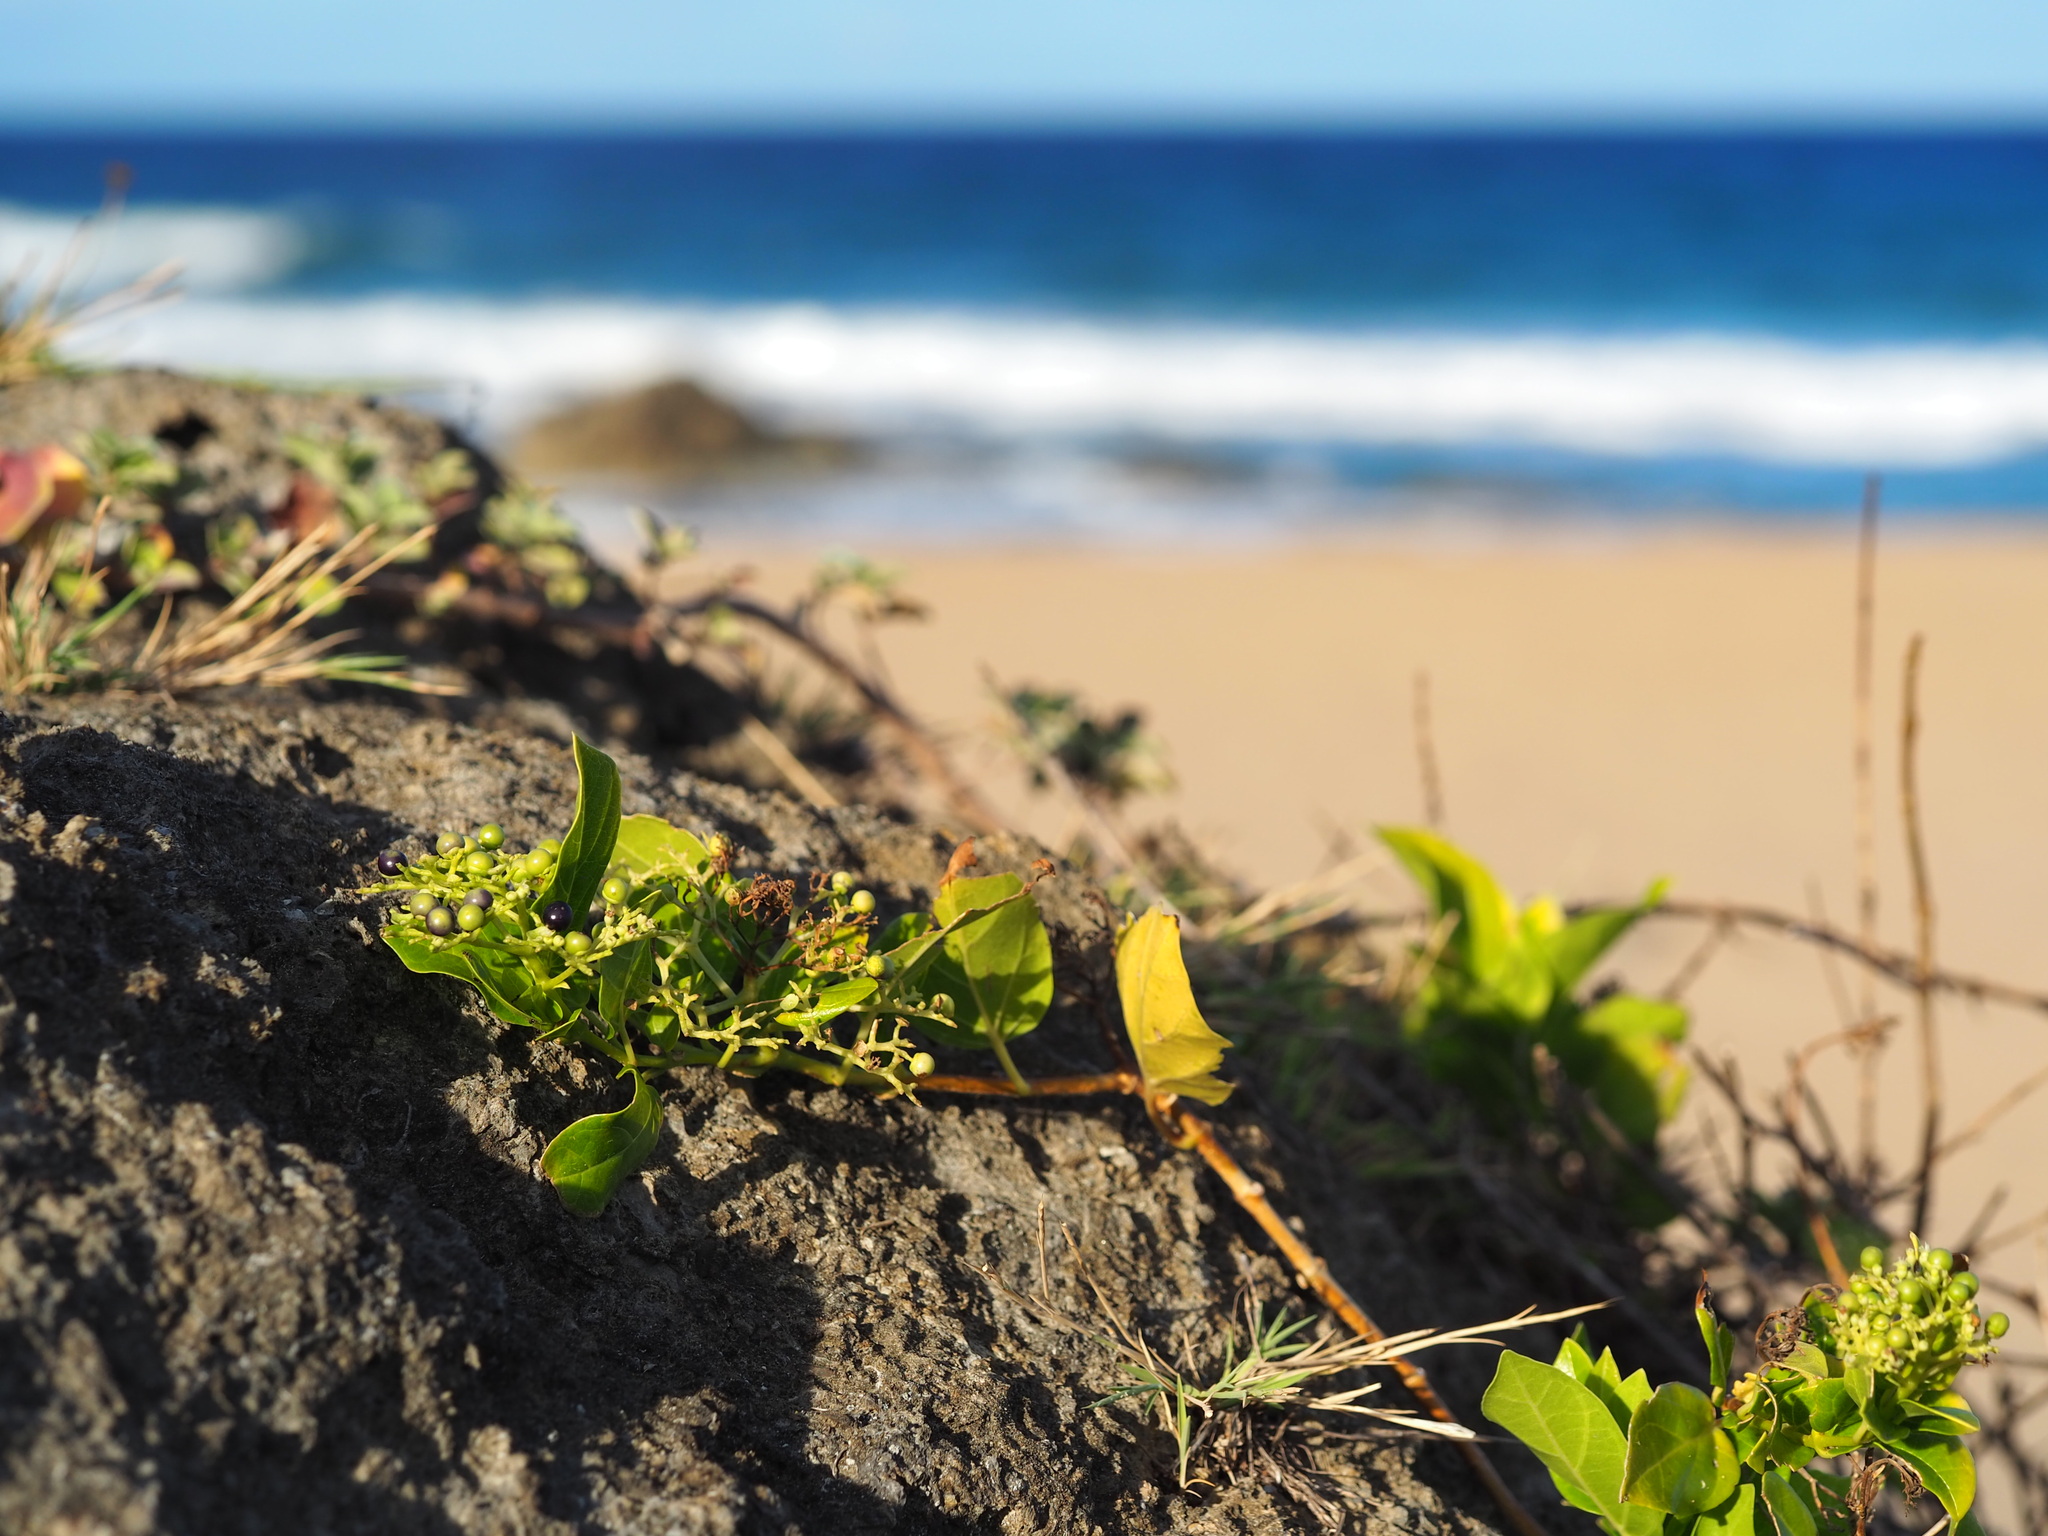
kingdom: Plantae
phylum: Tracheophyta
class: Magnoliopsida
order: Lamiales
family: Lamiaceae
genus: Premna
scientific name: Premna serratifolia
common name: Bastard guelder
